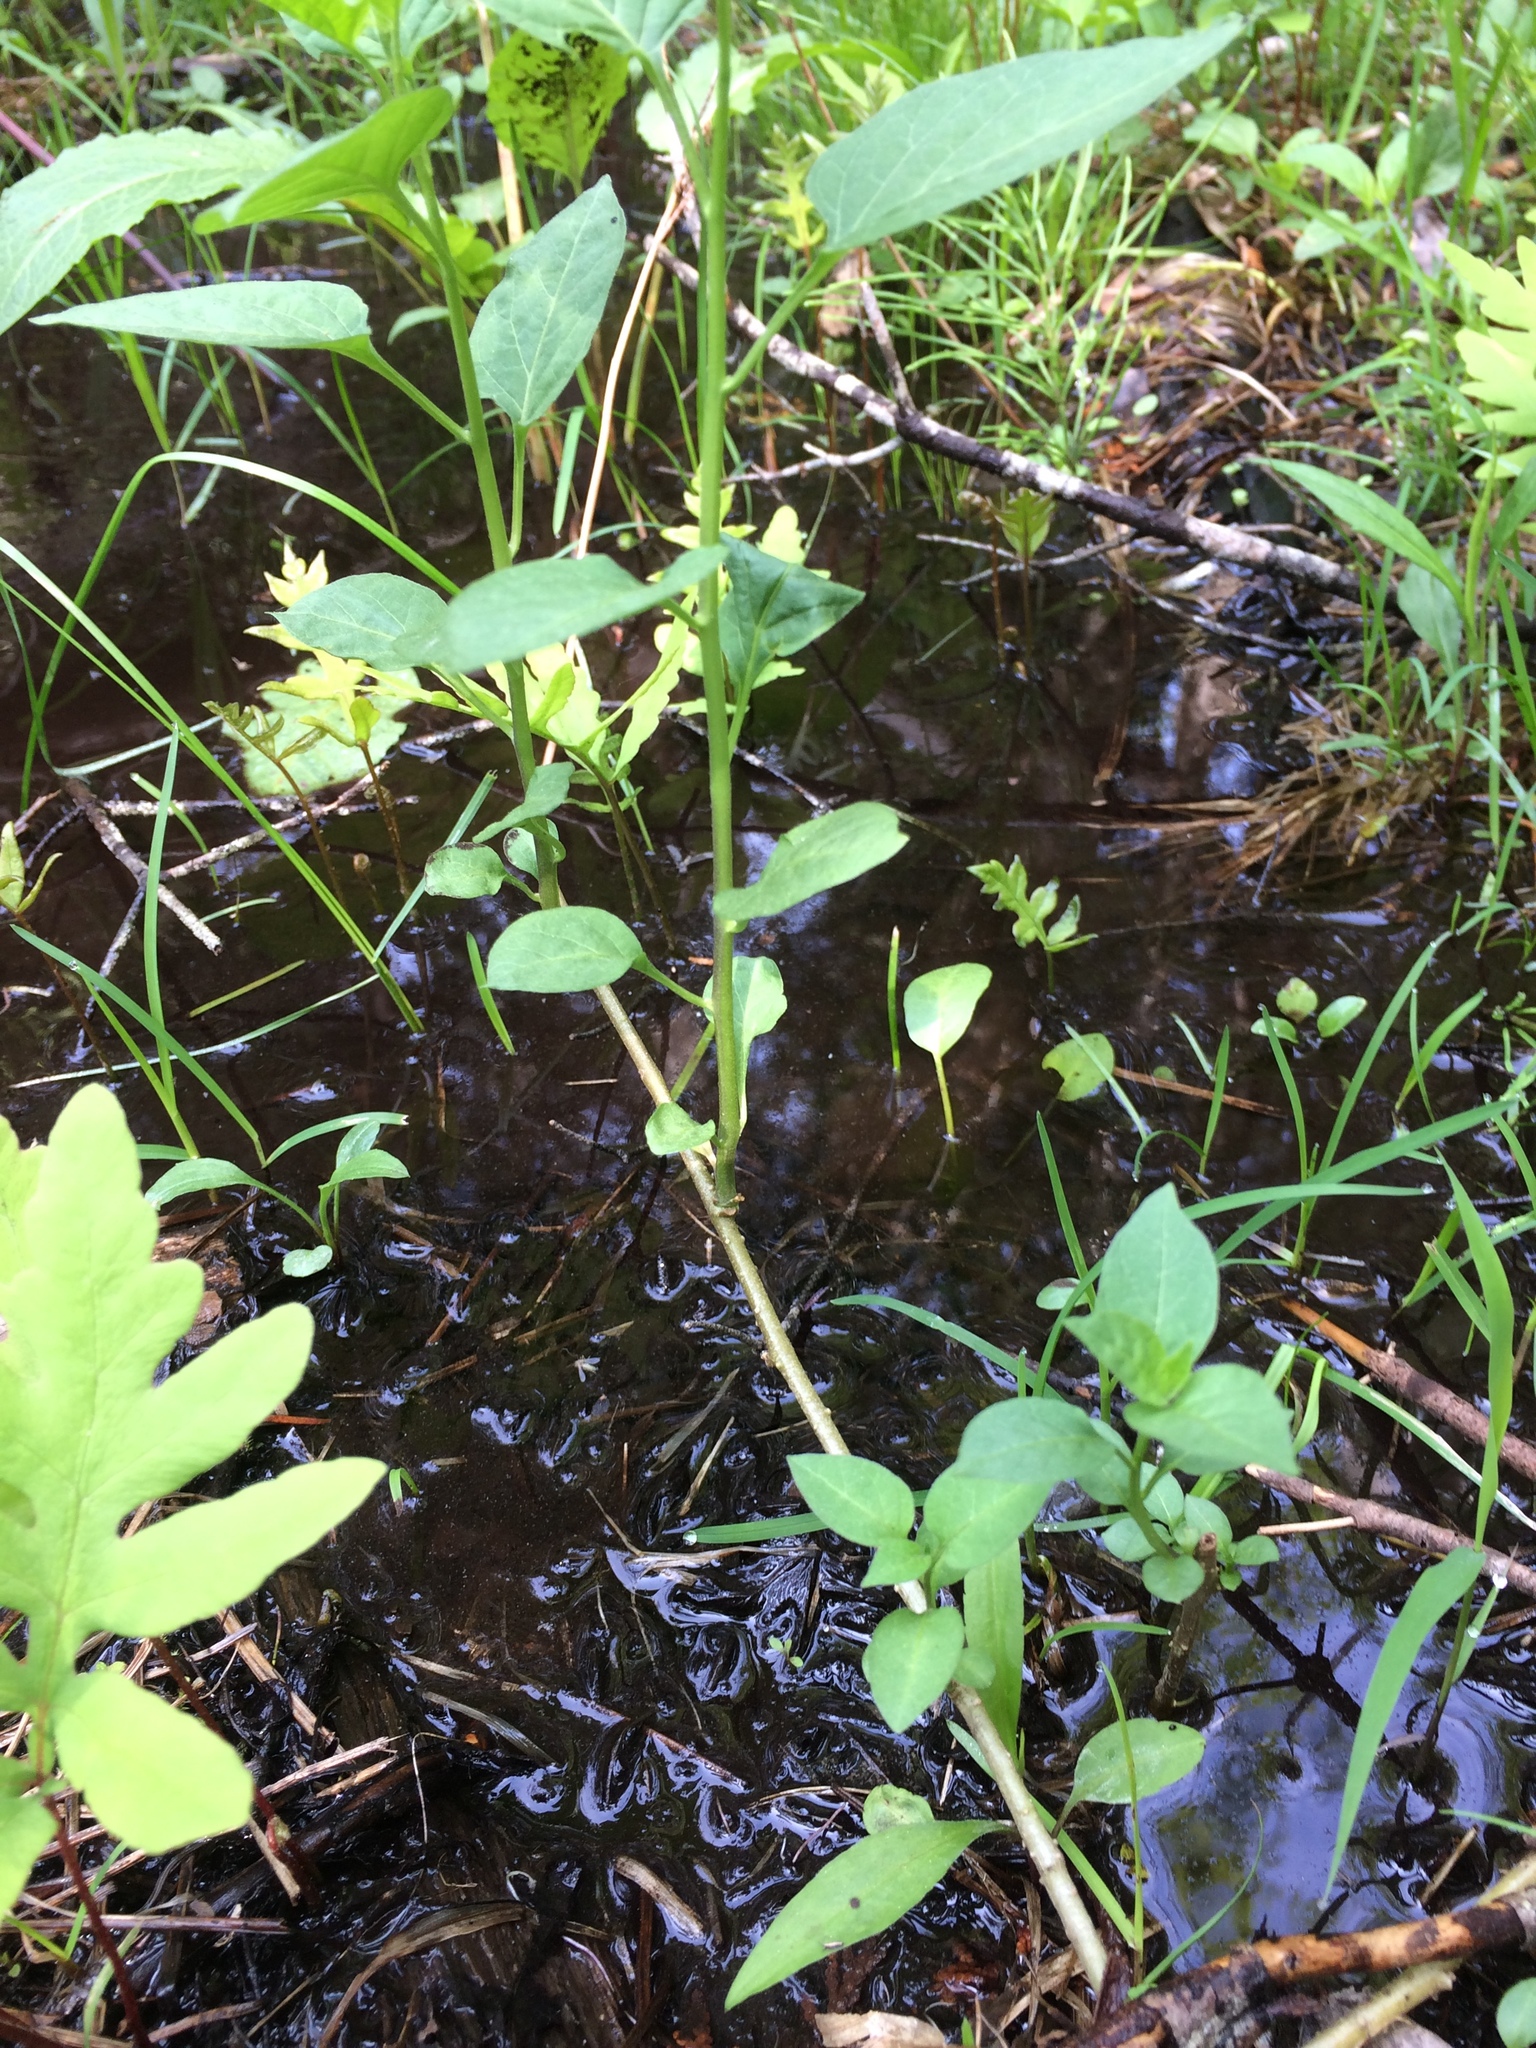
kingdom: Plantae
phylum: Tracheophyta
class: Magnoliopsida
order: Solanales
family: Solanaceae
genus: Solanum
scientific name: Solanum dulcamara
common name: Climbing nightshade
